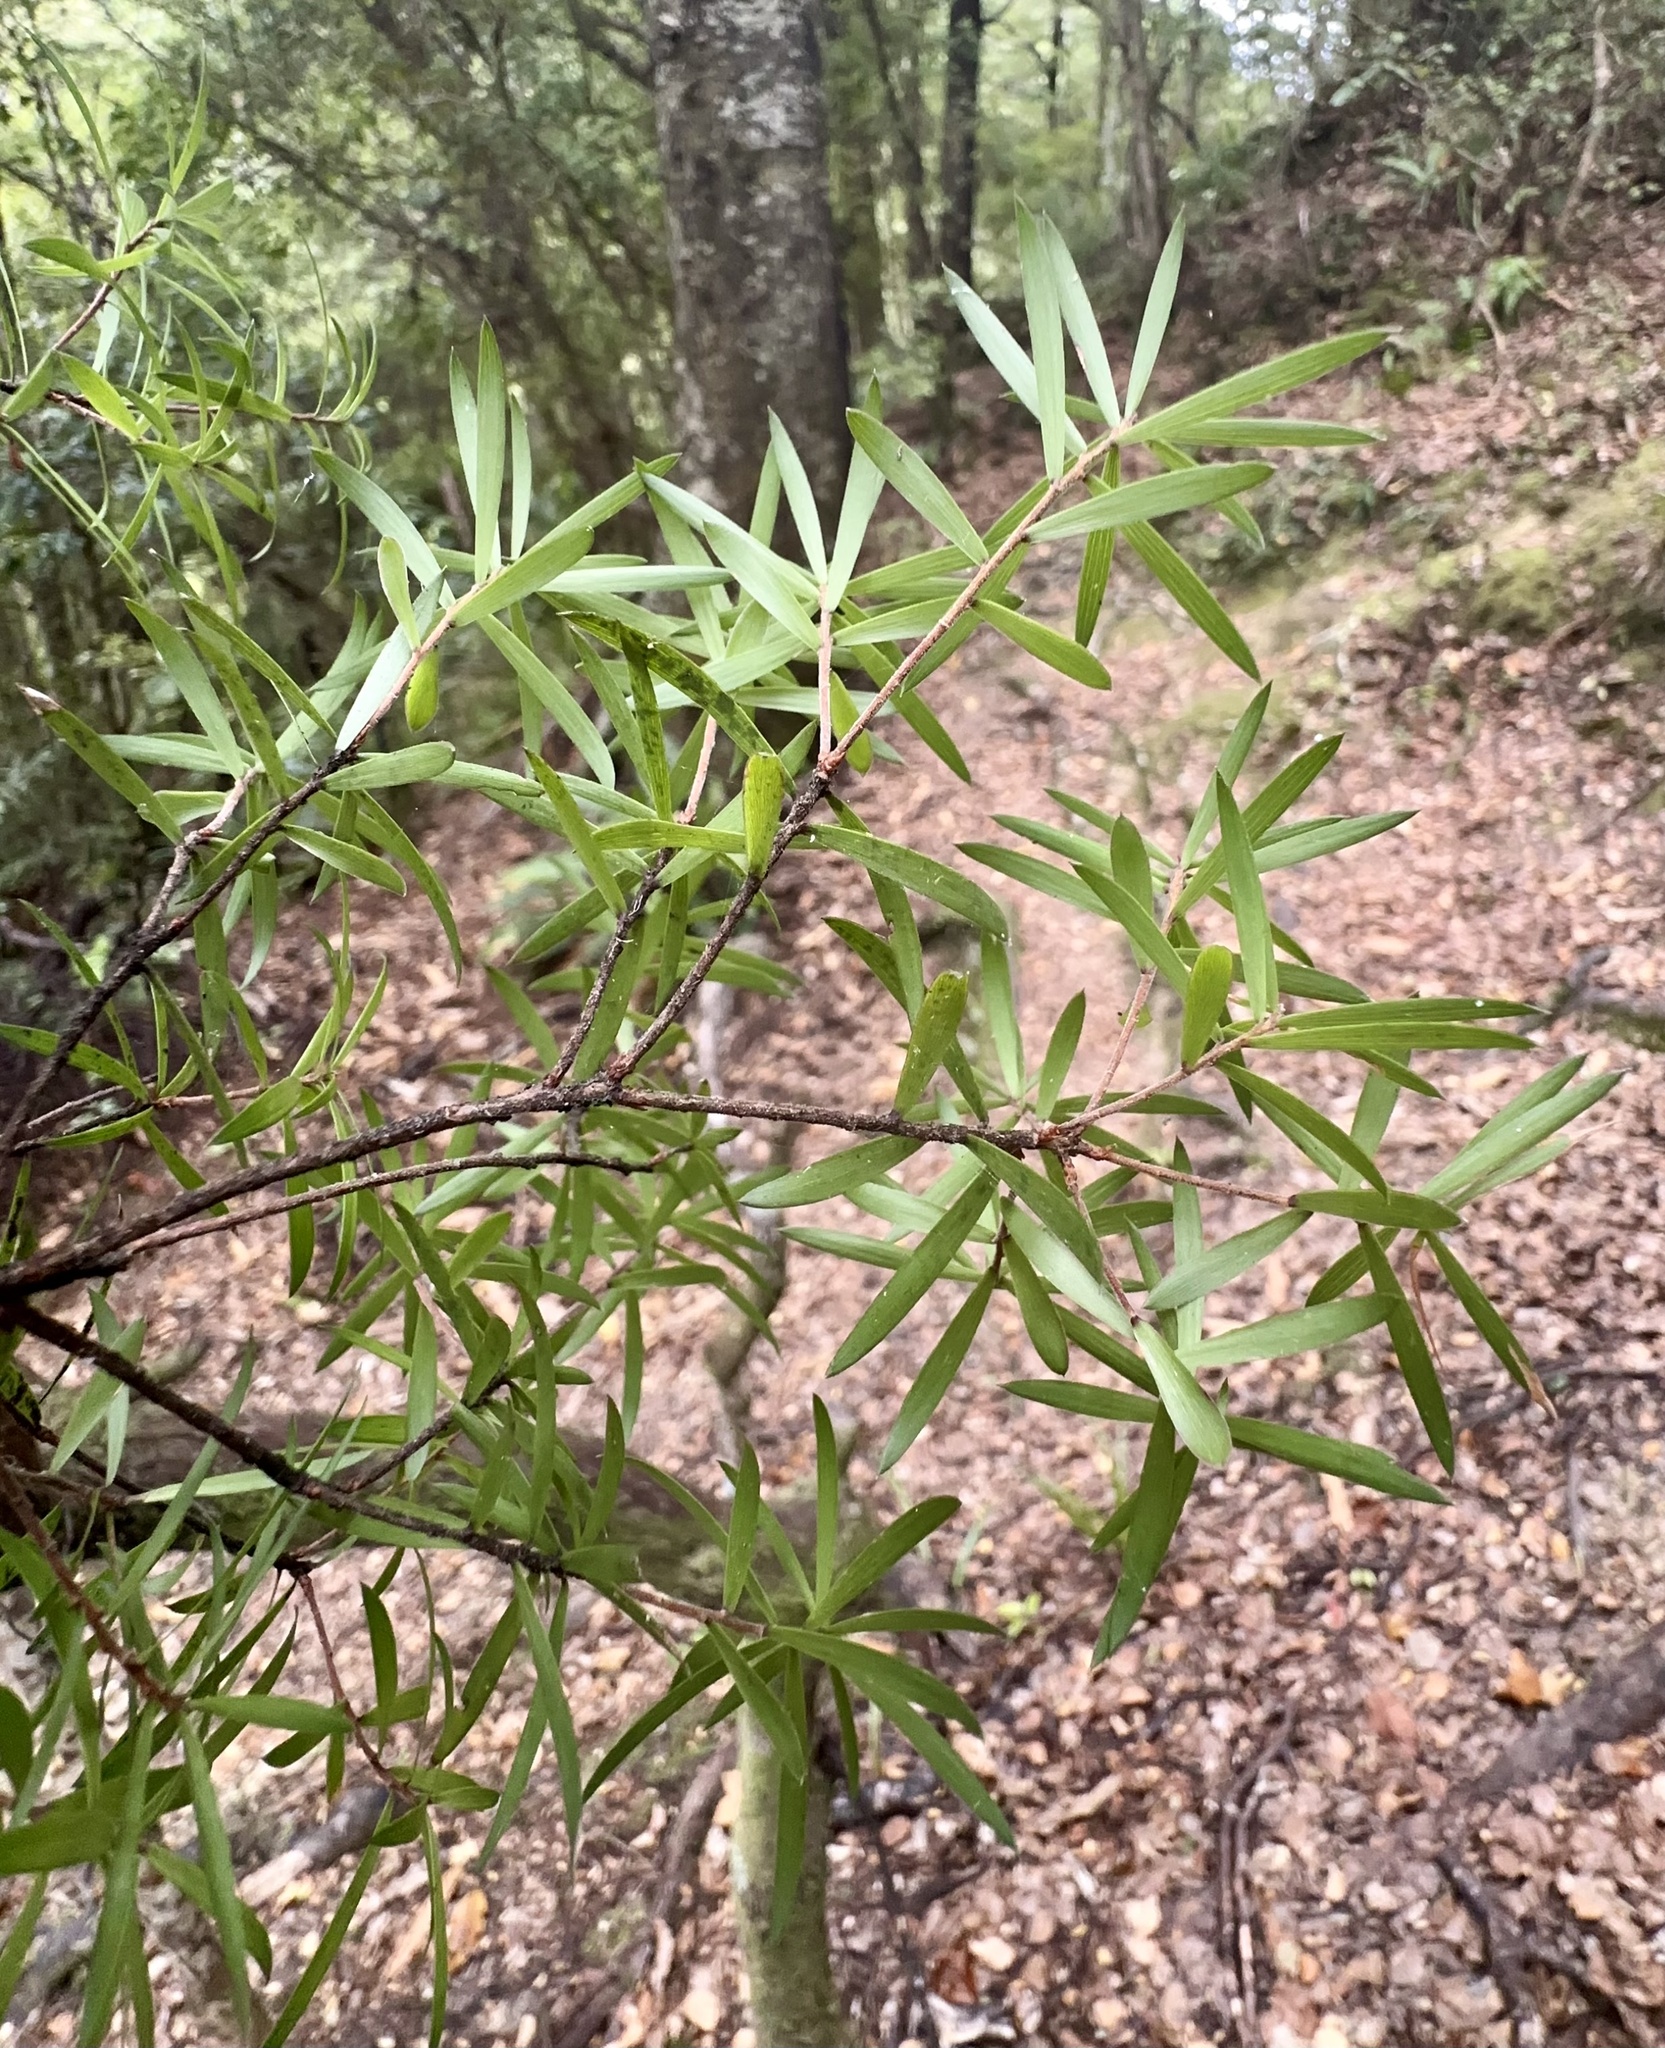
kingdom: Plantae
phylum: Tracheophyta
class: Magnoliopsida
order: Ericales
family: Ericaceae
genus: Leucopogon
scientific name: Leucopogon fasciculatus
